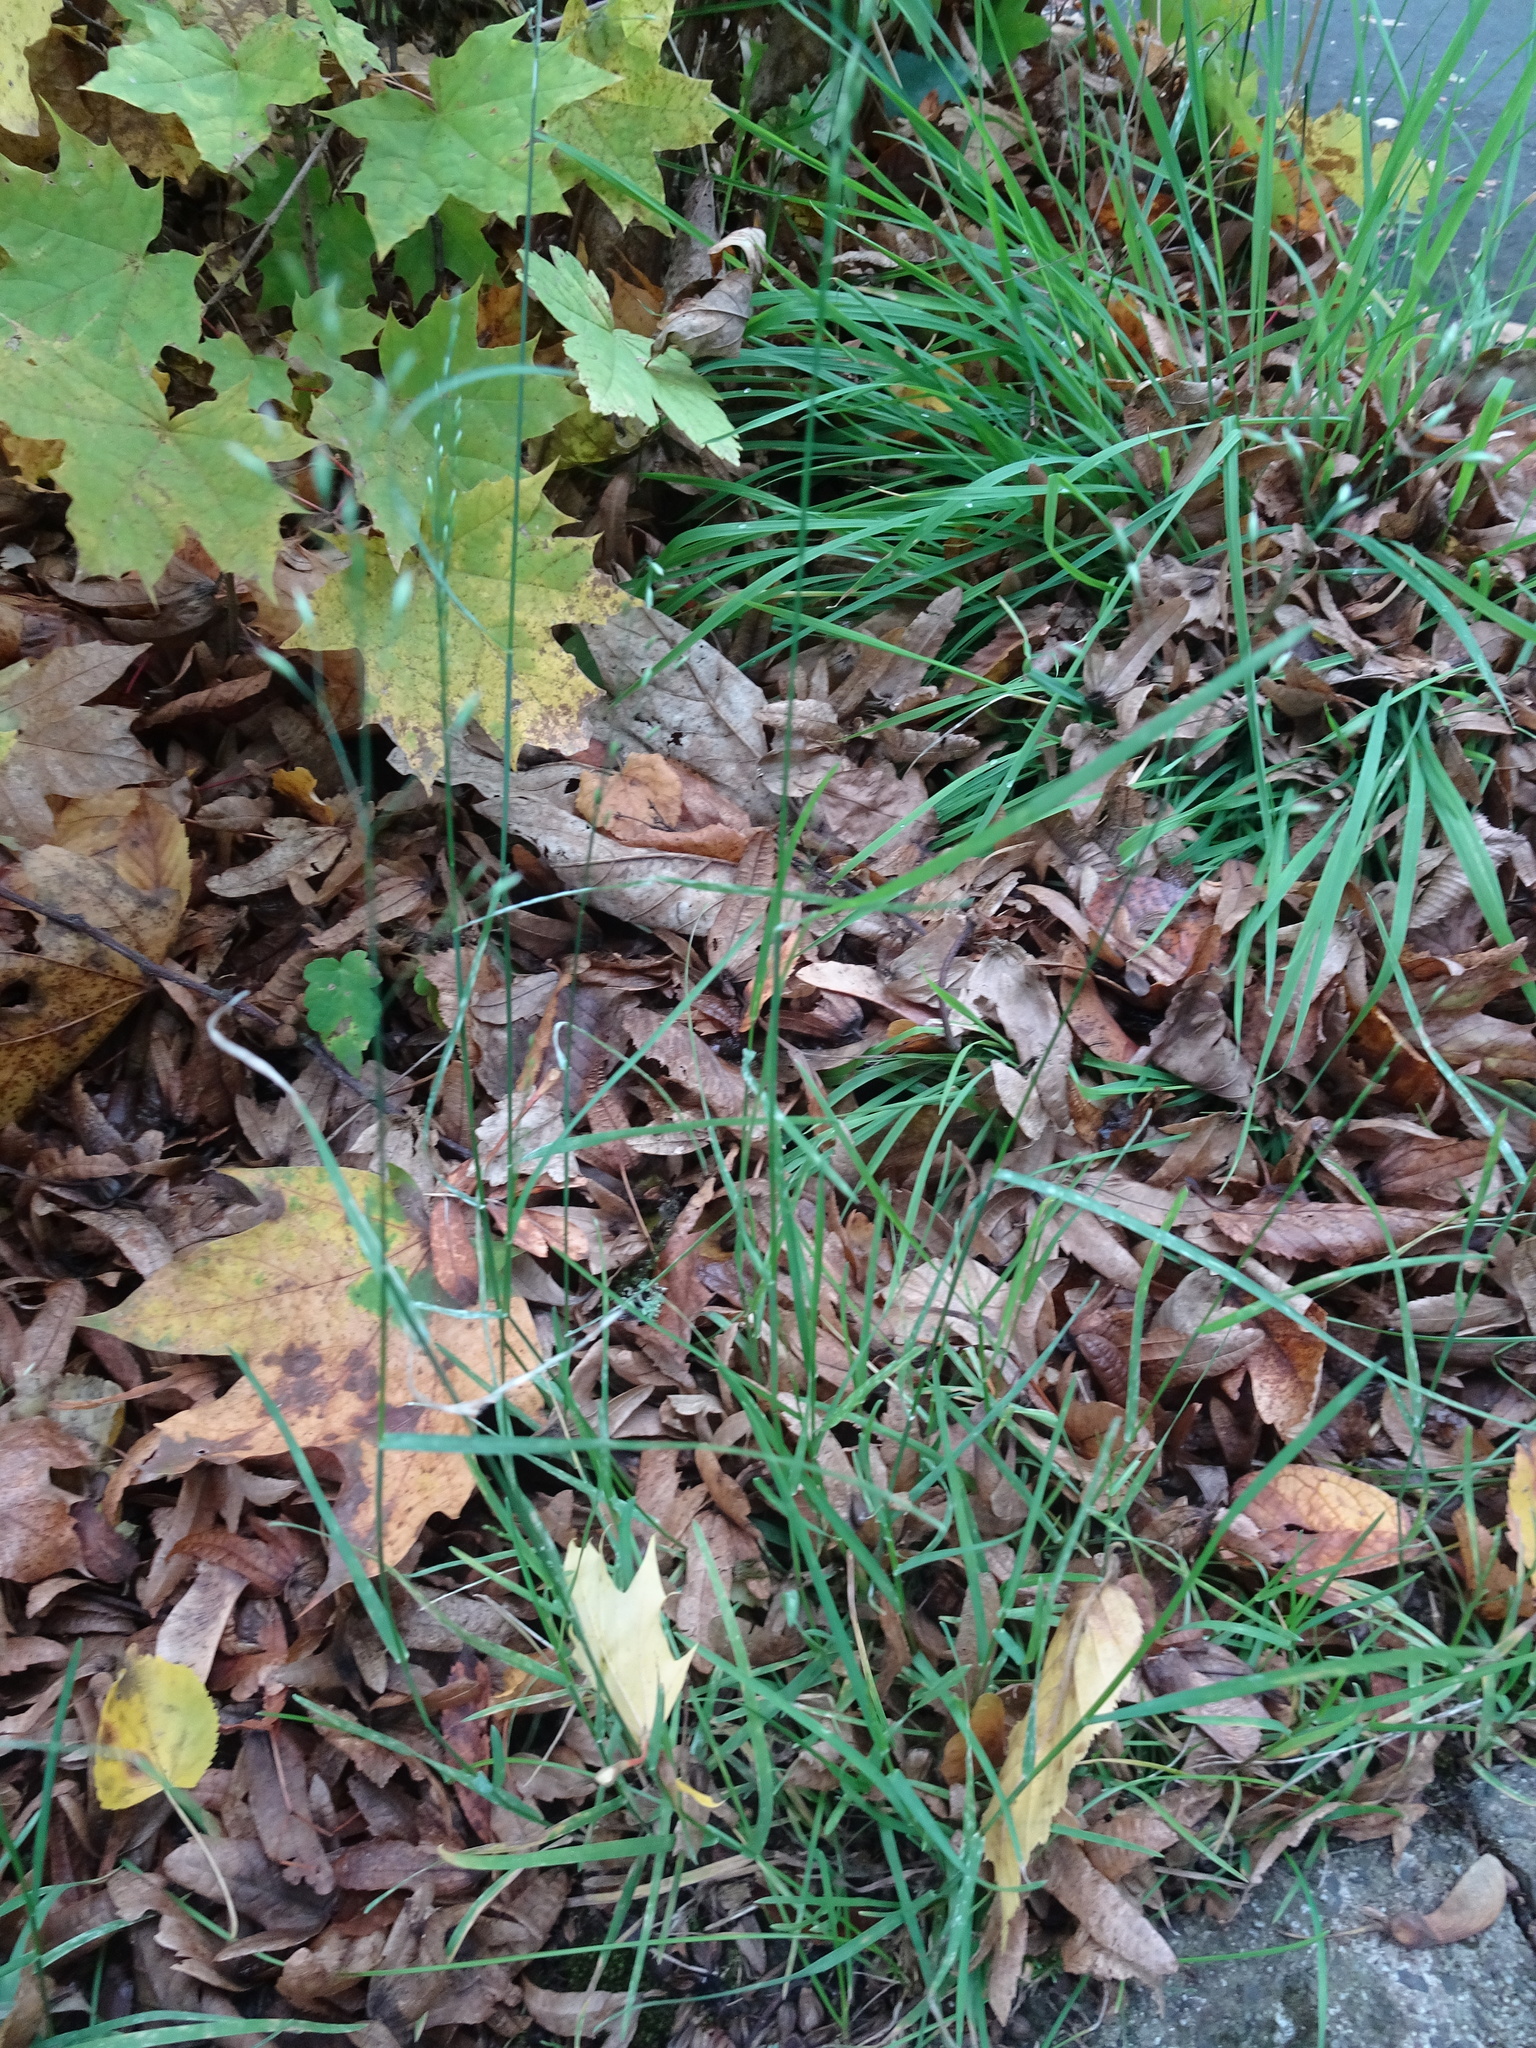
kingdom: Plantae
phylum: Tracheophyta
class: Liliopsida
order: Poales
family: Poaceae
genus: Poa
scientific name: Poa nemoralis
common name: Wood bluegrass
